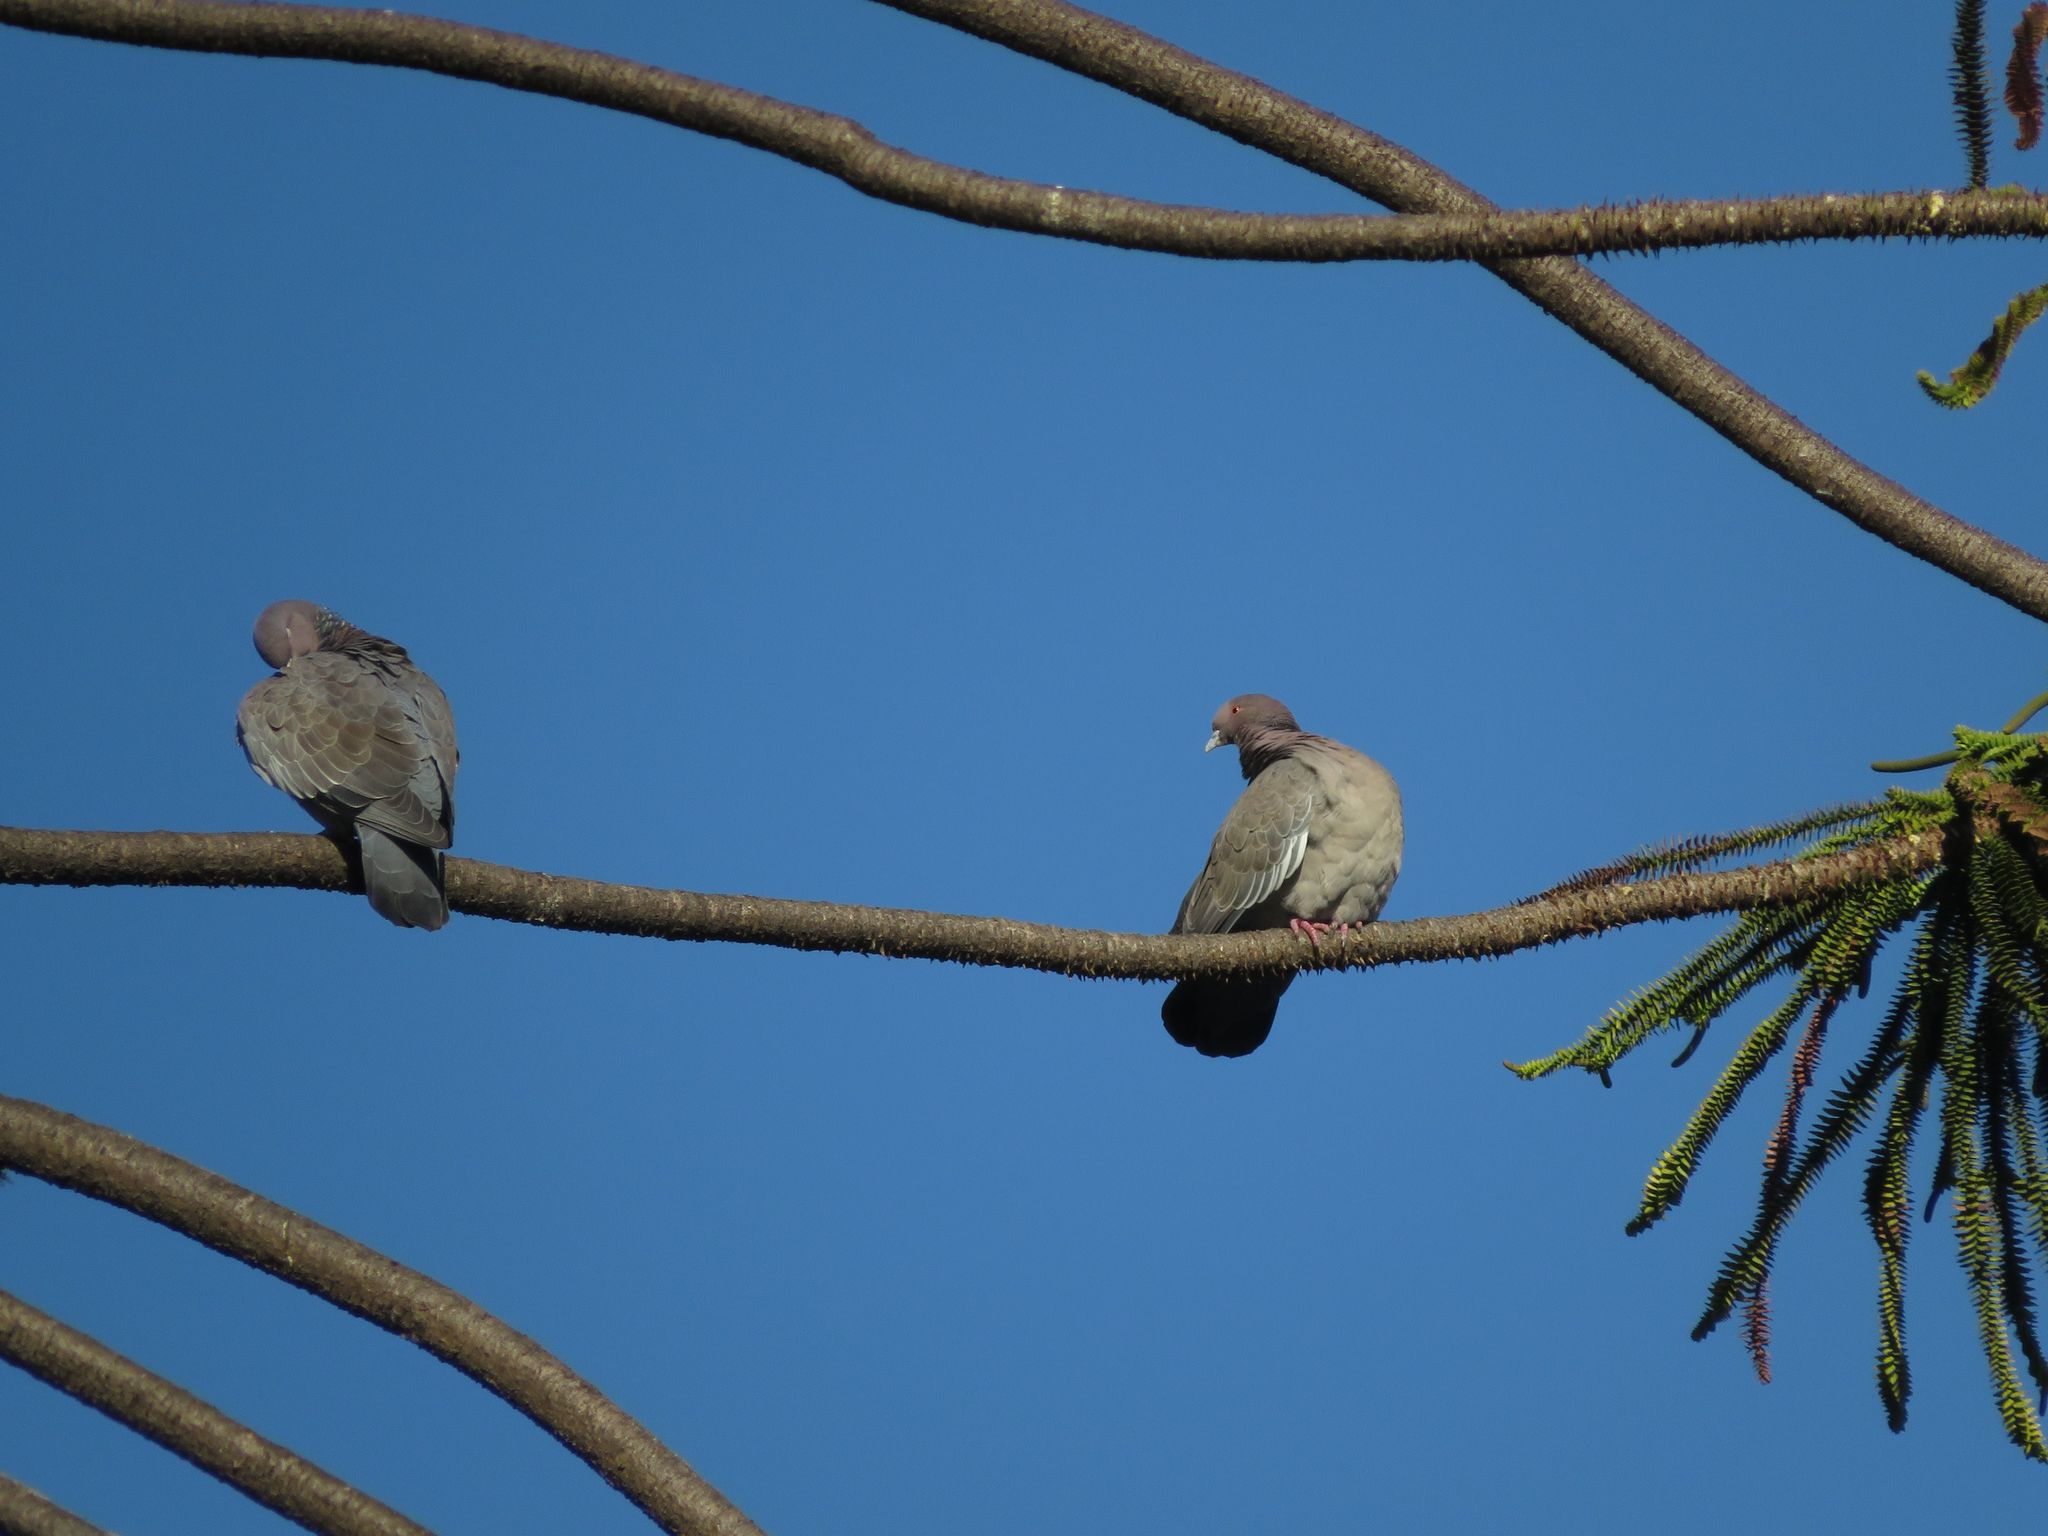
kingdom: Animalia
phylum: Chordata
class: Aves
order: Columbiformes
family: Columbidae
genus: Patagioenas
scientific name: Patagioenas picazuro
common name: Picazuro pigeon
